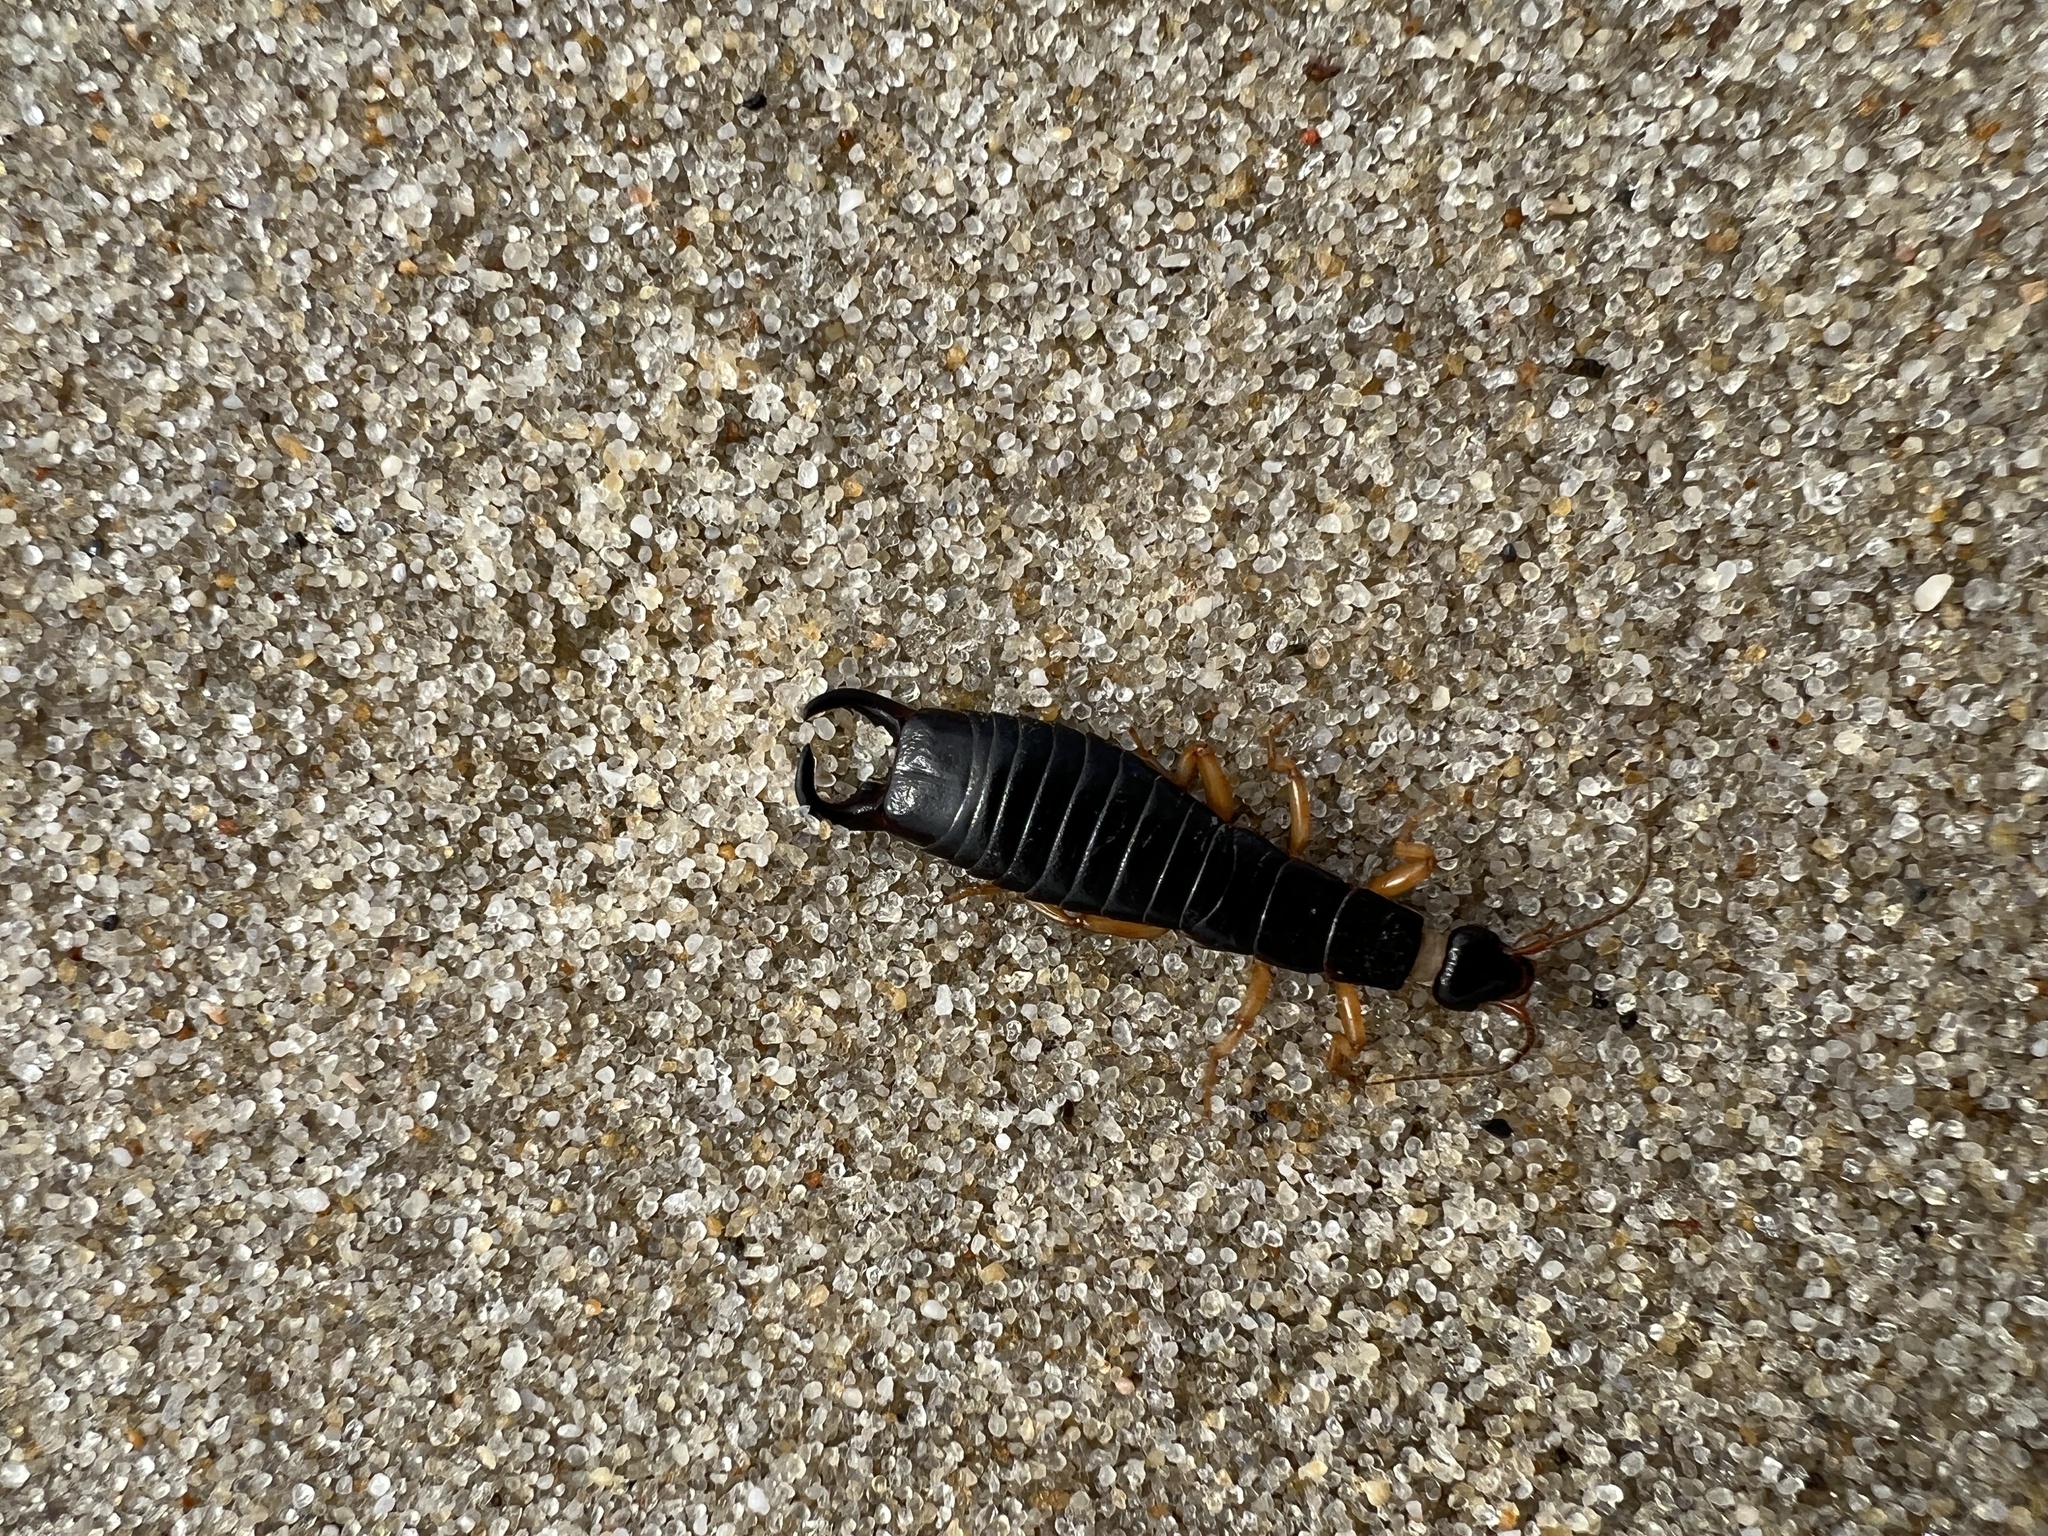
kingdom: Animalia
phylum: Arthropoda
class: Insecta
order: Dermaptera
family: Anisolabididae
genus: Anisolabis
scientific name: Anisolabis maritima
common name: Maritime earwig
